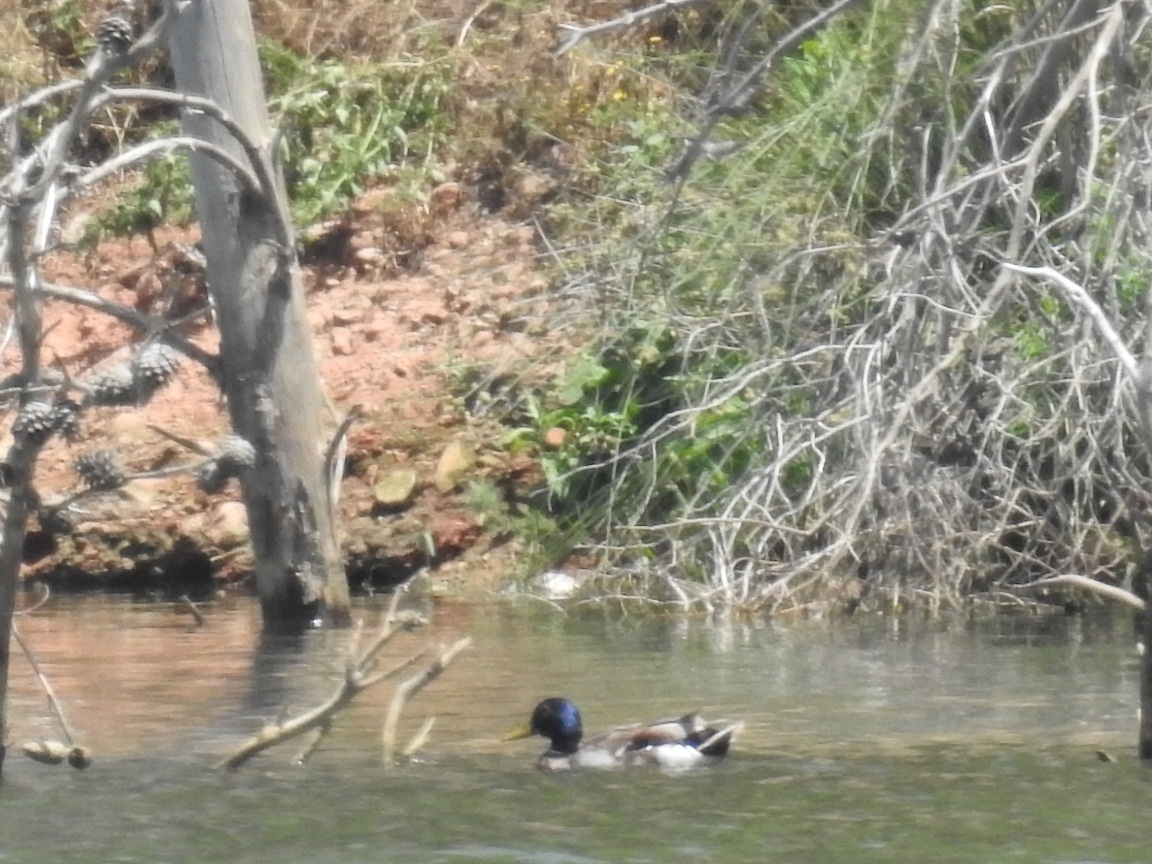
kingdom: Animalia
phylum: Chordata
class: Aves
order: Anseriformes
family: Anatidae
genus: Anas
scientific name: Anas platyrhynchos
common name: Mallard
